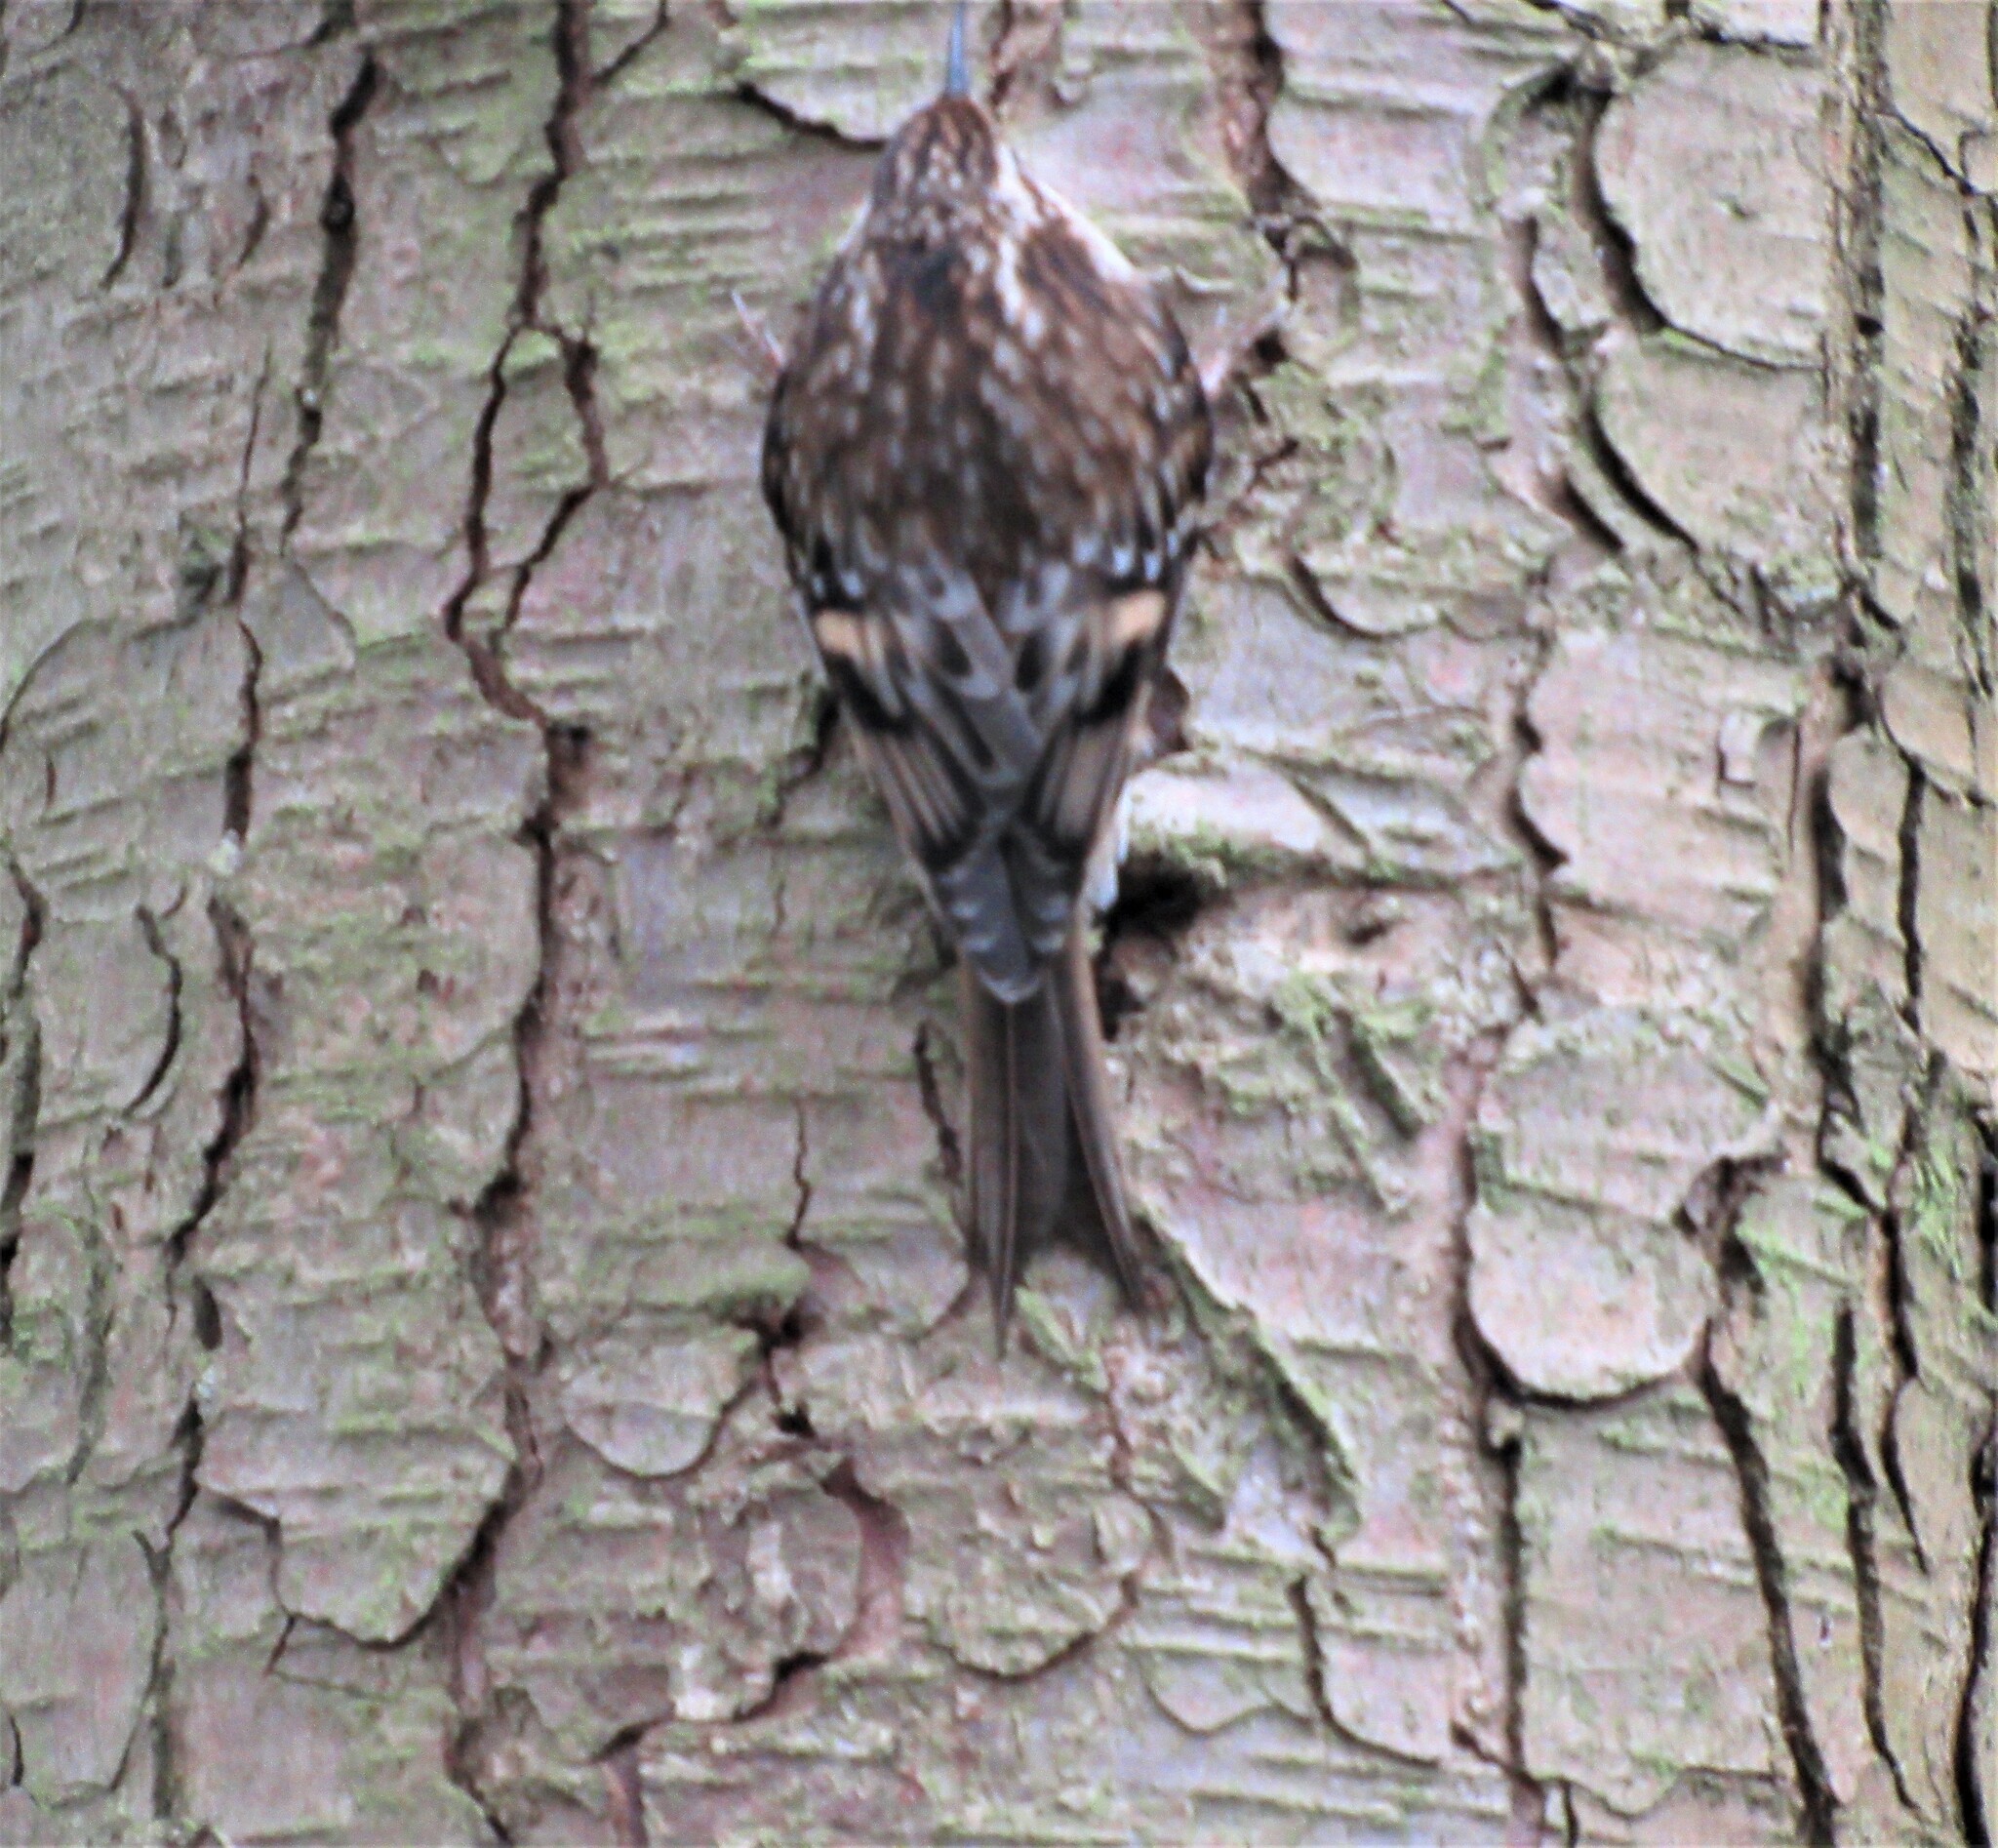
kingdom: Animalia
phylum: Chordata
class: Aves
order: Passeriformes
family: Certhiidae
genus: Certhia
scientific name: Certhia americana
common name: Brown creeper
